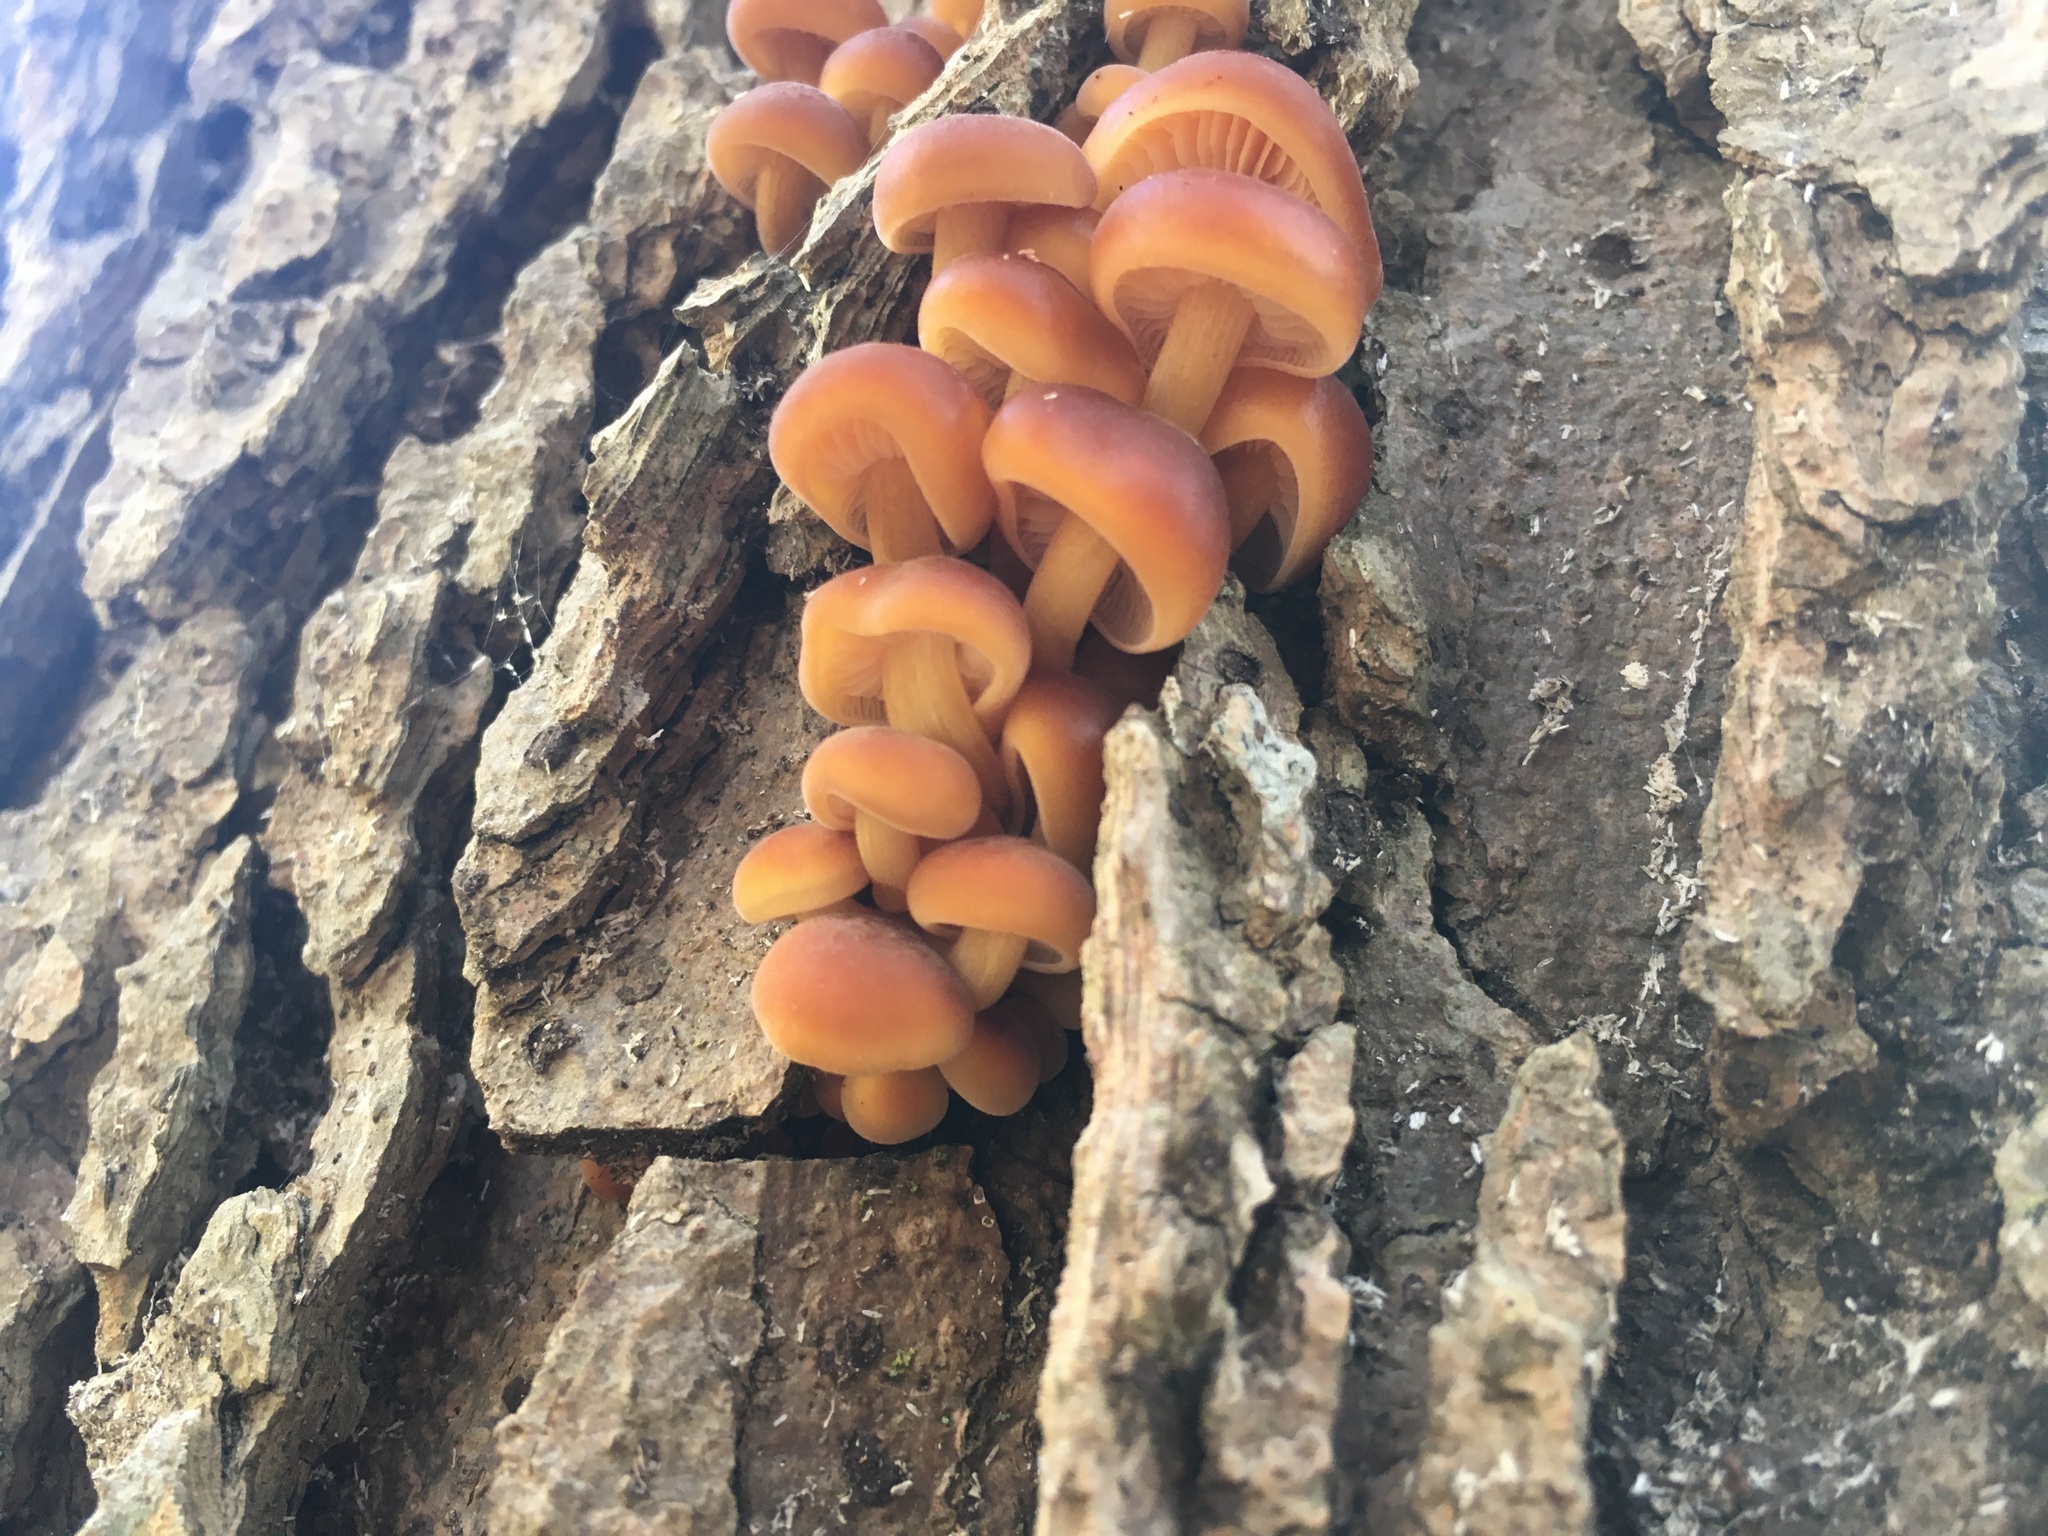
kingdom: Fungi
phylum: Basidiomycota
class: Agaricomycetes
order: Agaricales
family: Physalacriaceae
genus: Flammulina
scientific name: Flammulina velutipes
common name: Velvet shank
